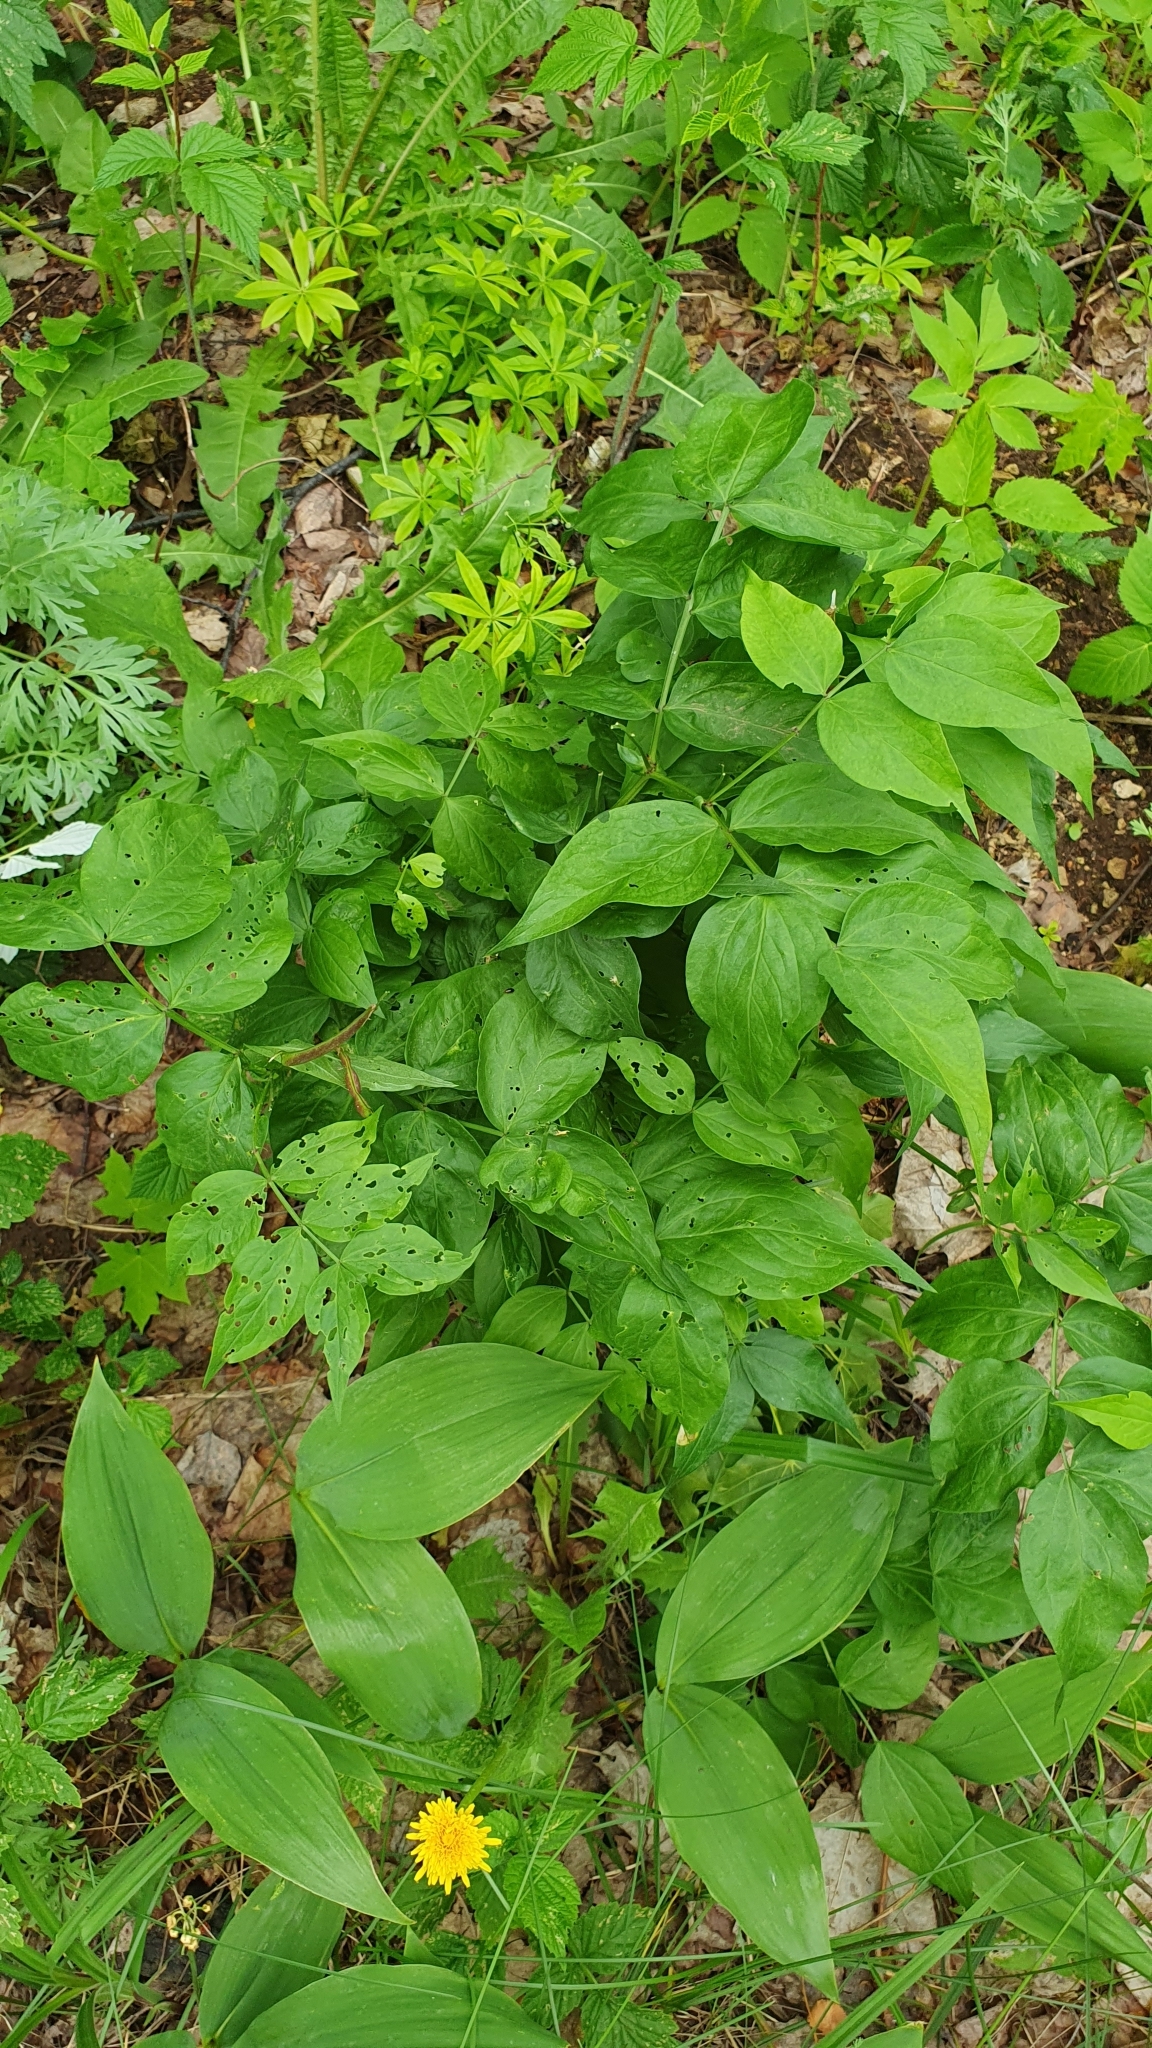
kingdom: Plantae
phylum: Tracheophyta
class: Magnoliopsida
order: Fabales
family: Fabaceae
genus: Lathyrus
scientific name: Lathyrus vernus
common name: Spring pea
